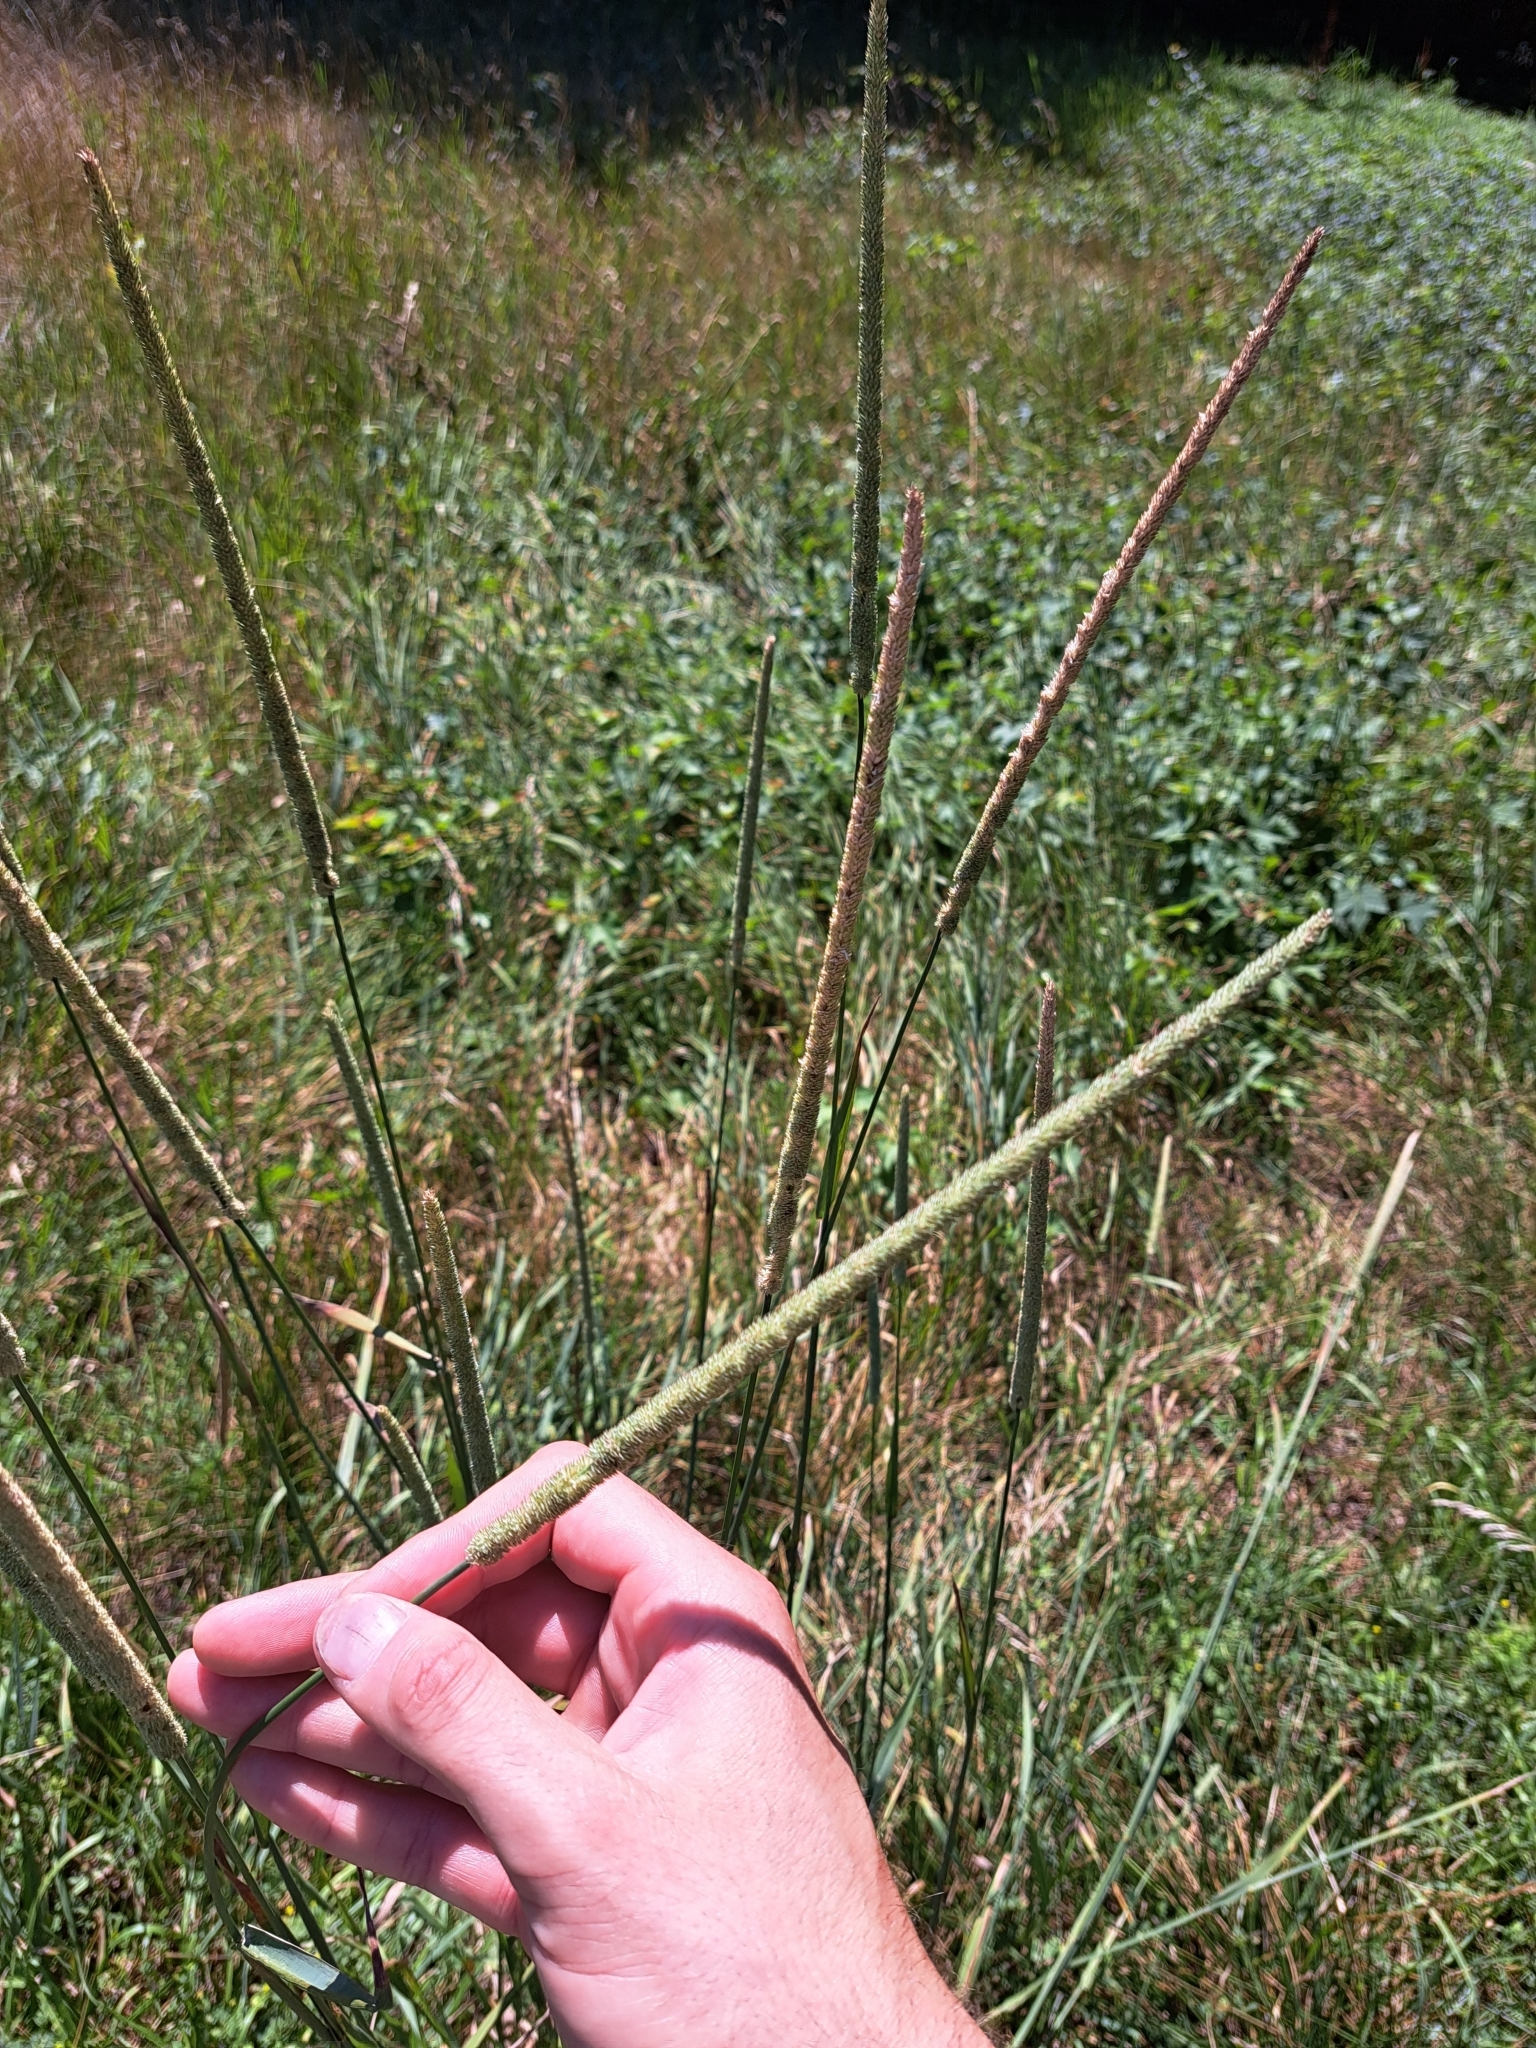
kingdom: Plantae
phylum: Tracheophyta
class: Liliopsida
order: Poales
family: Poaceae
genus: Phleum
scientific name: Phleum pratense
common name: Timothy grass
